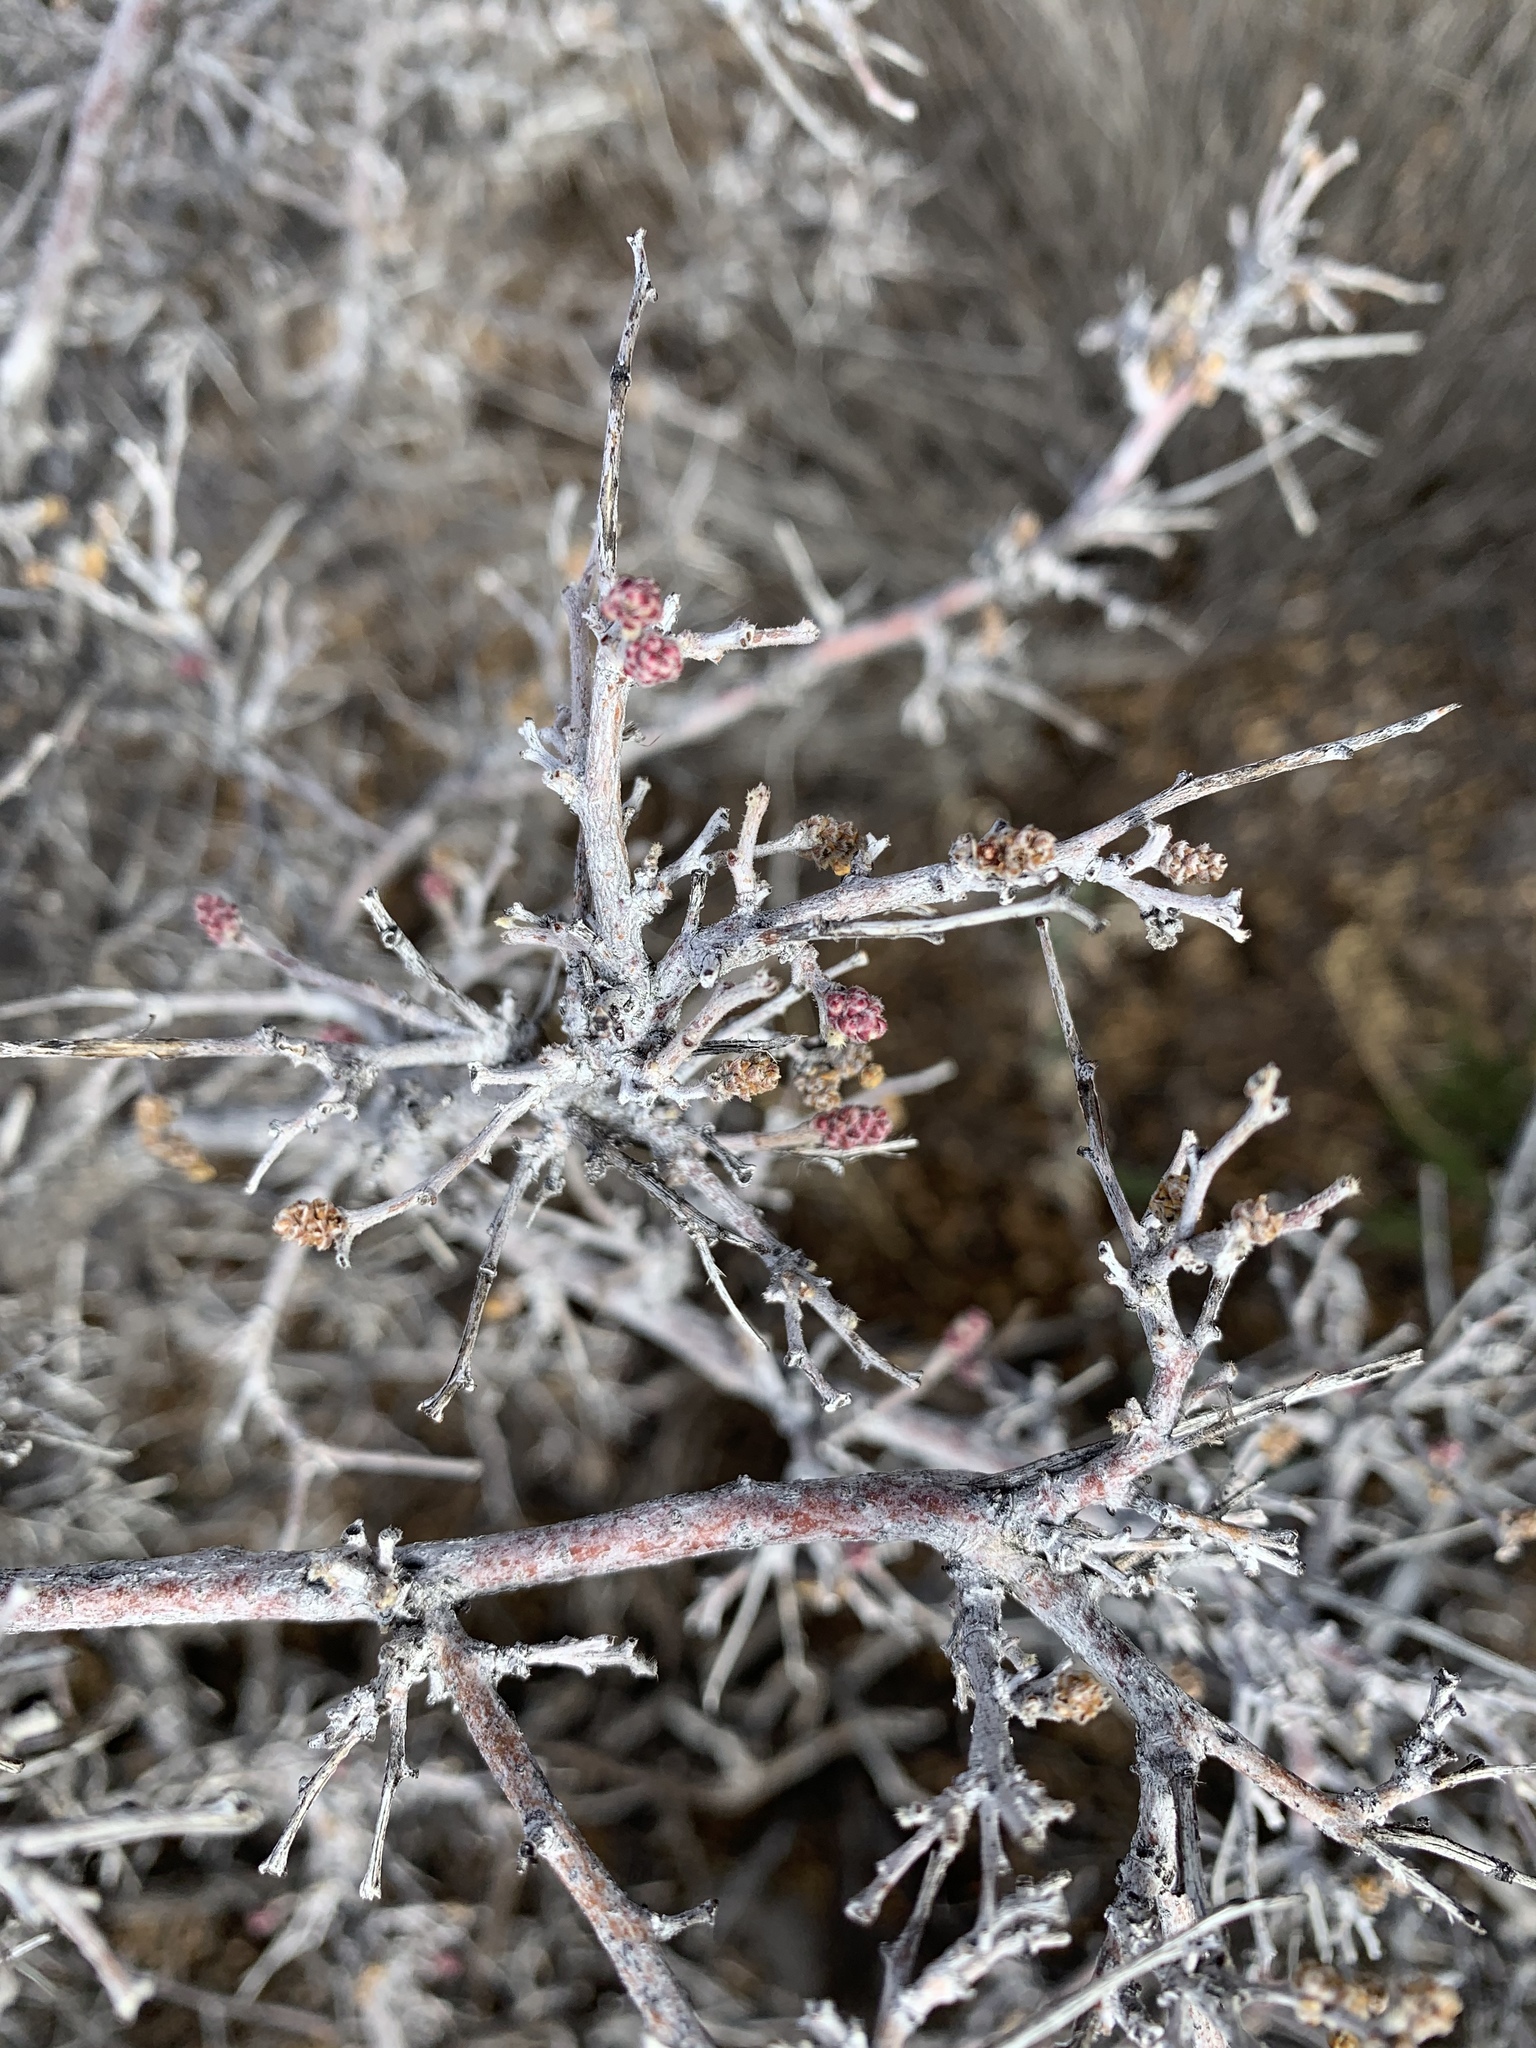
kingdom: Plantae
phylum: Tracheophyta
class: Magnoliopsida
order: Sapindales
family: Anacardiaceae
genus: Rhus
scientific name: Rhus microphylla
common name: Desert sumac
